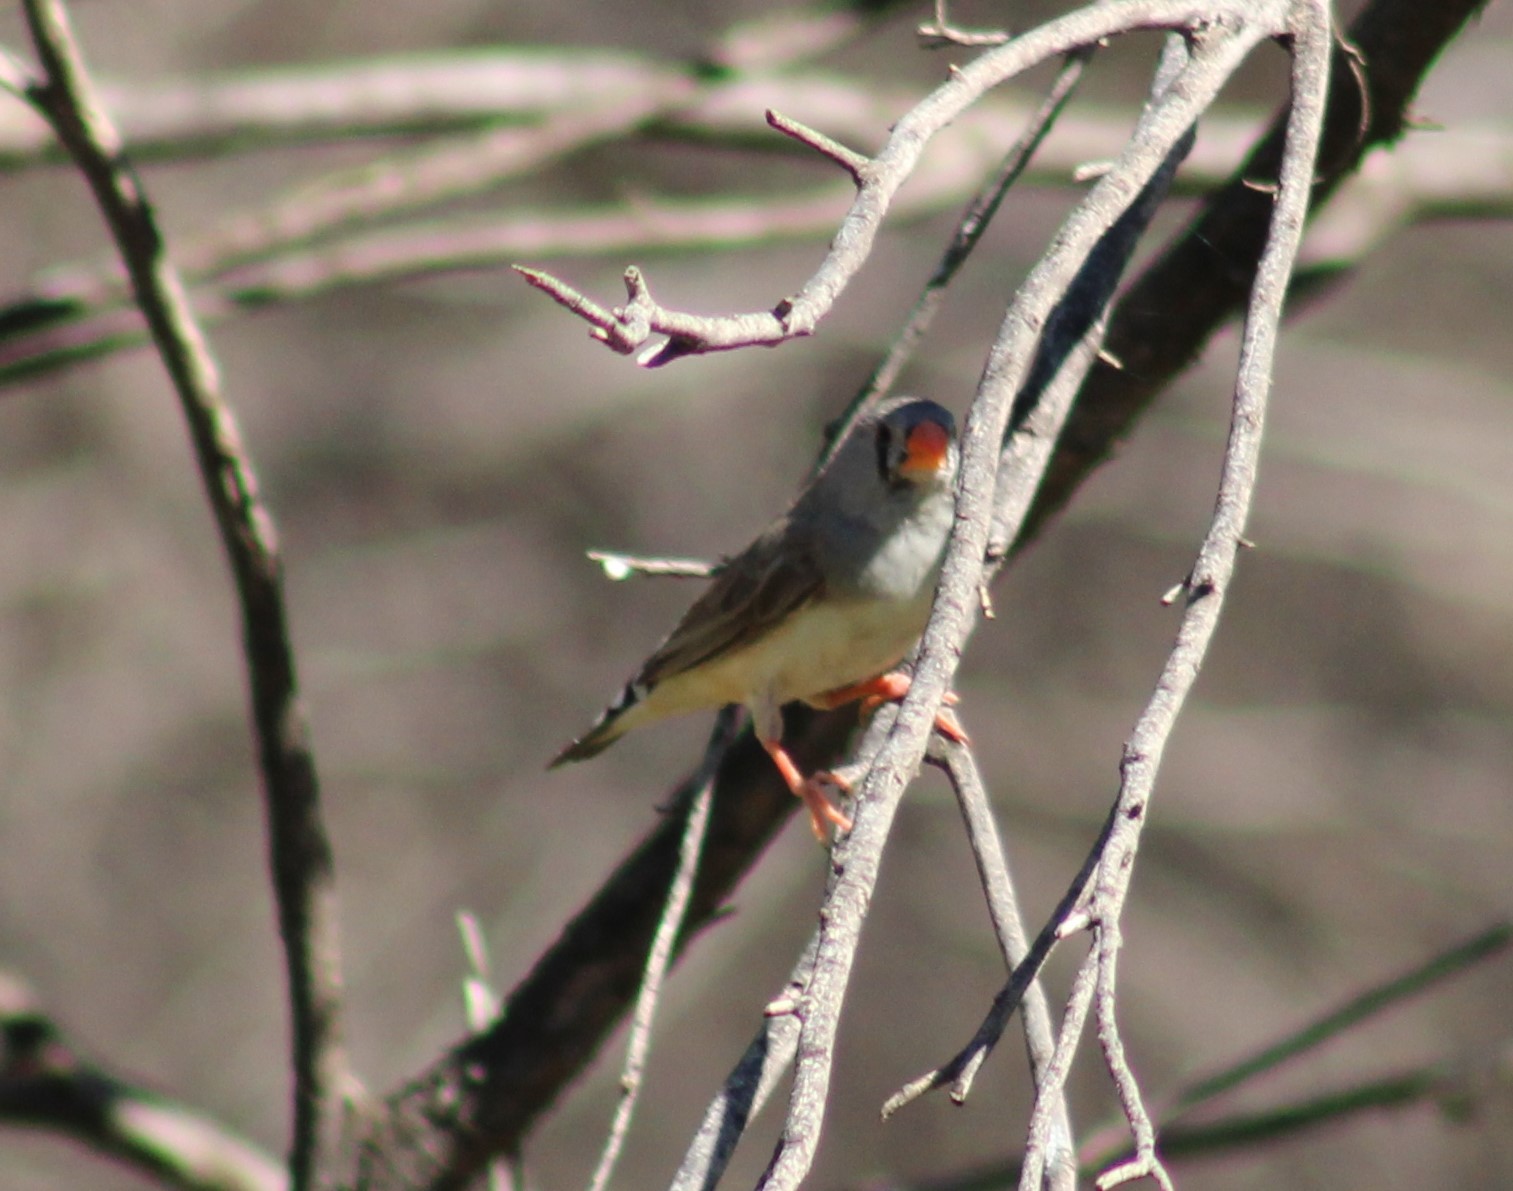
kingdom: Animalia
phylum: Chordata
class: Aves
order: Passeriformes
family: Estrildidae
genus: Taeniopygia
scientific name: Taeniopygia guttata
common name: Zebra finch
